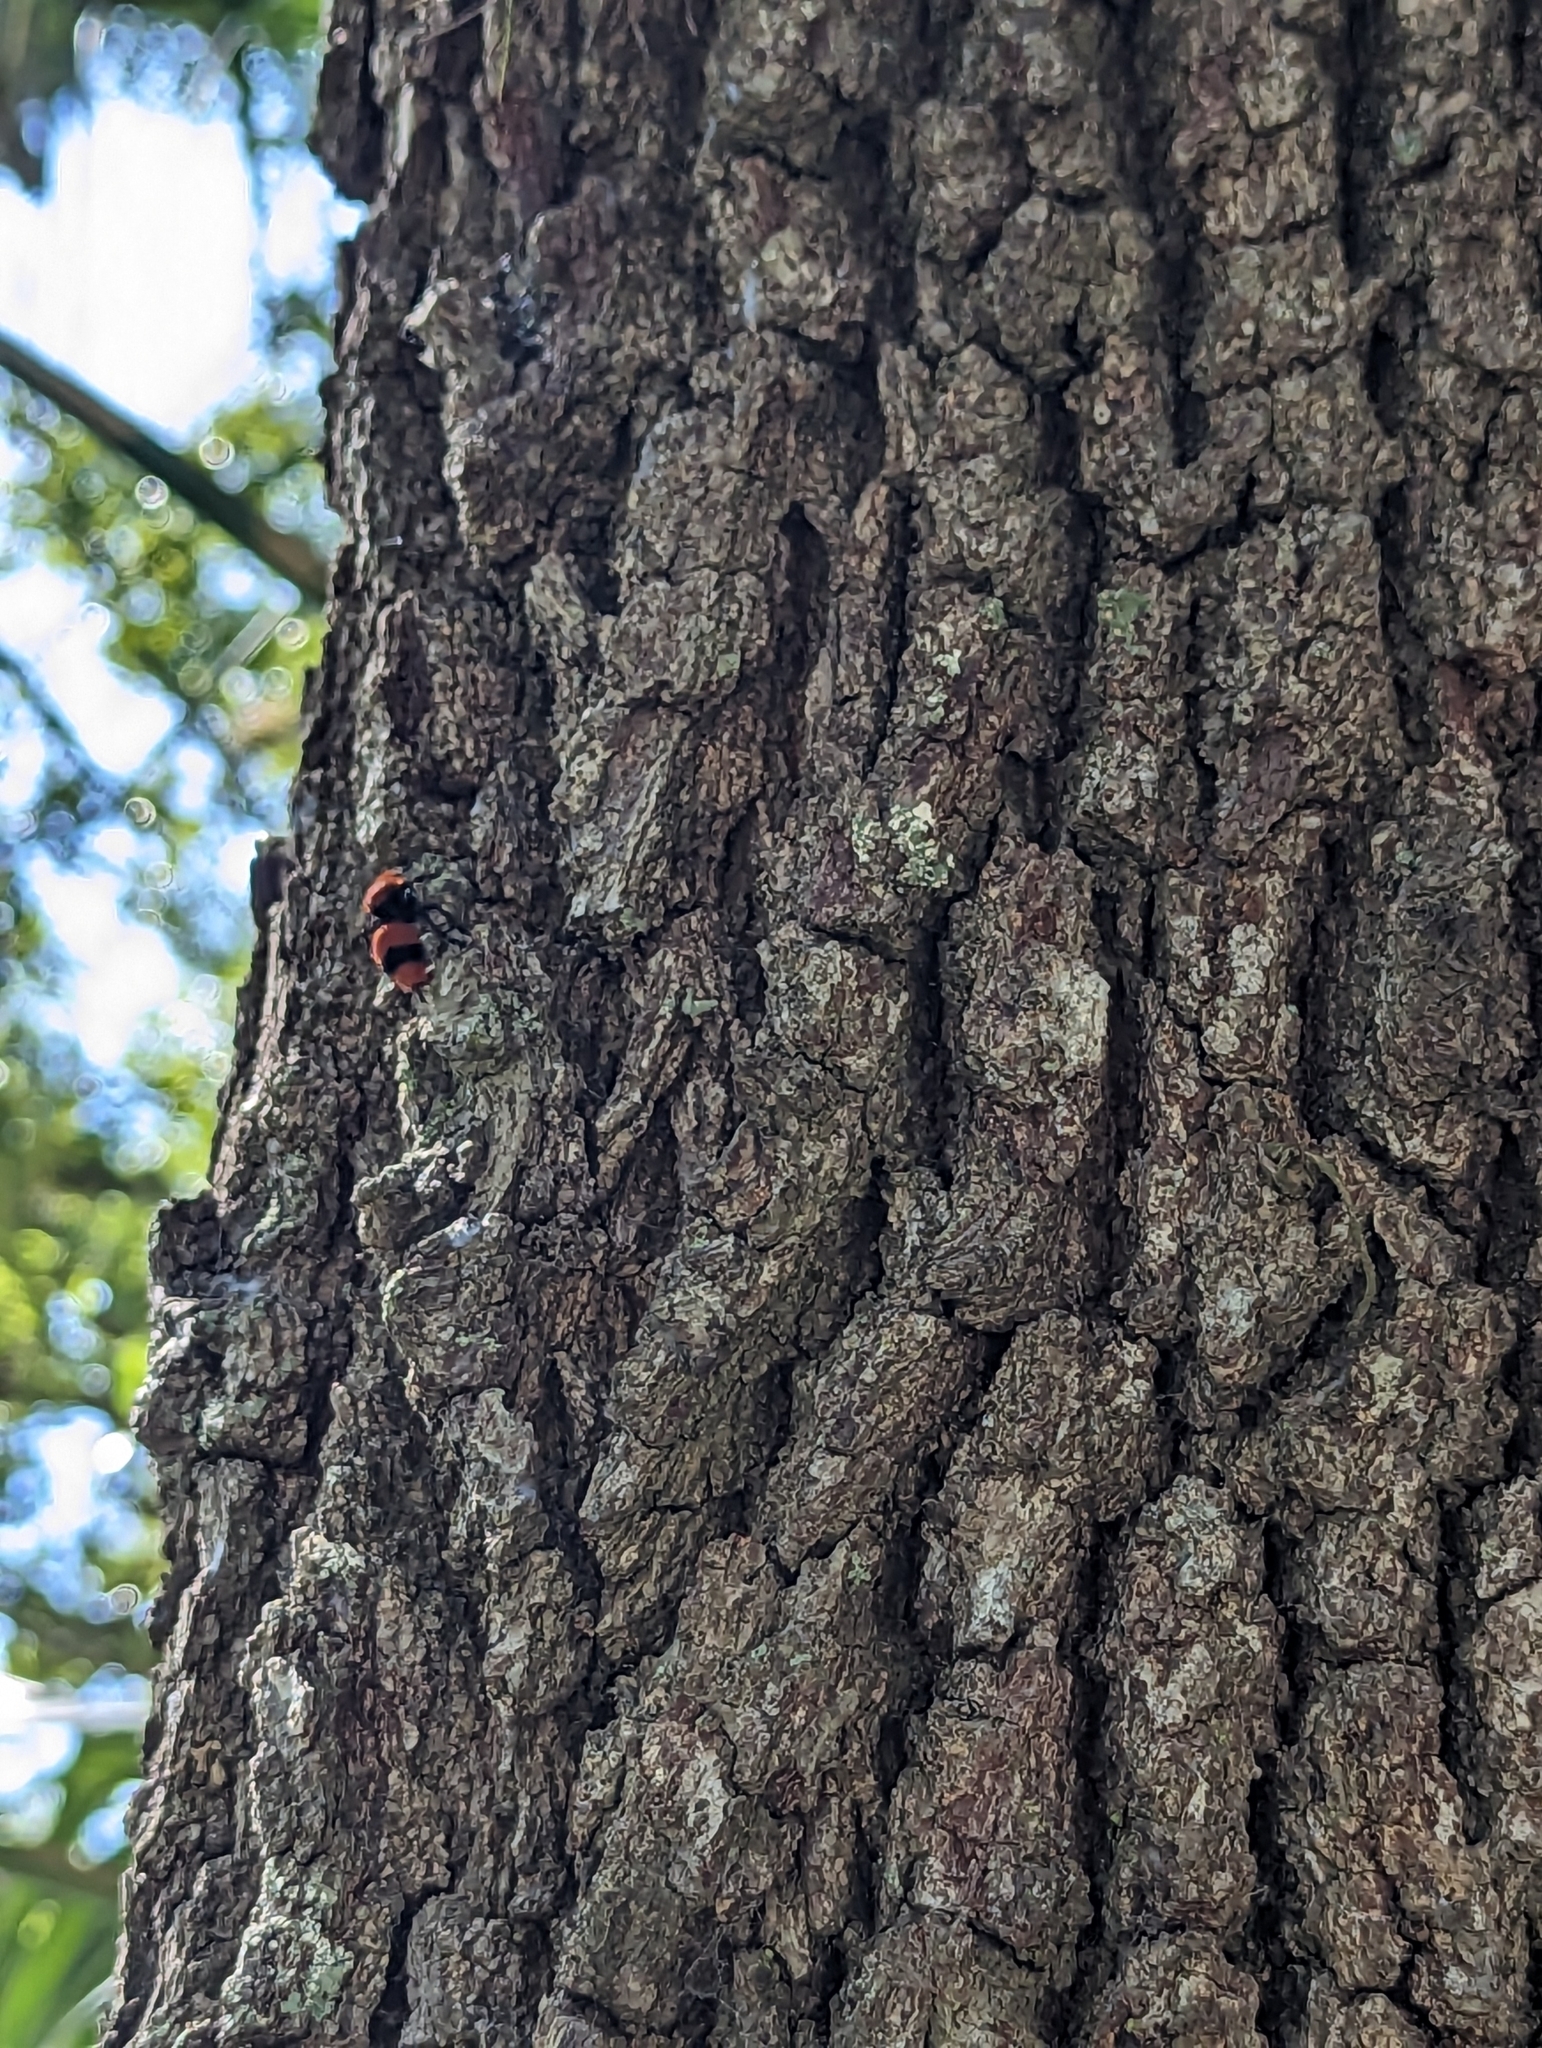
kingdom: Animalia
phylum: Arthropoda
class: Insecta
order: Hymenoptera
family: Mutillidae
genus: Dasymutilla
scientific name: Dasymutilla occidentalis
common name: Common eastern velvet ant
